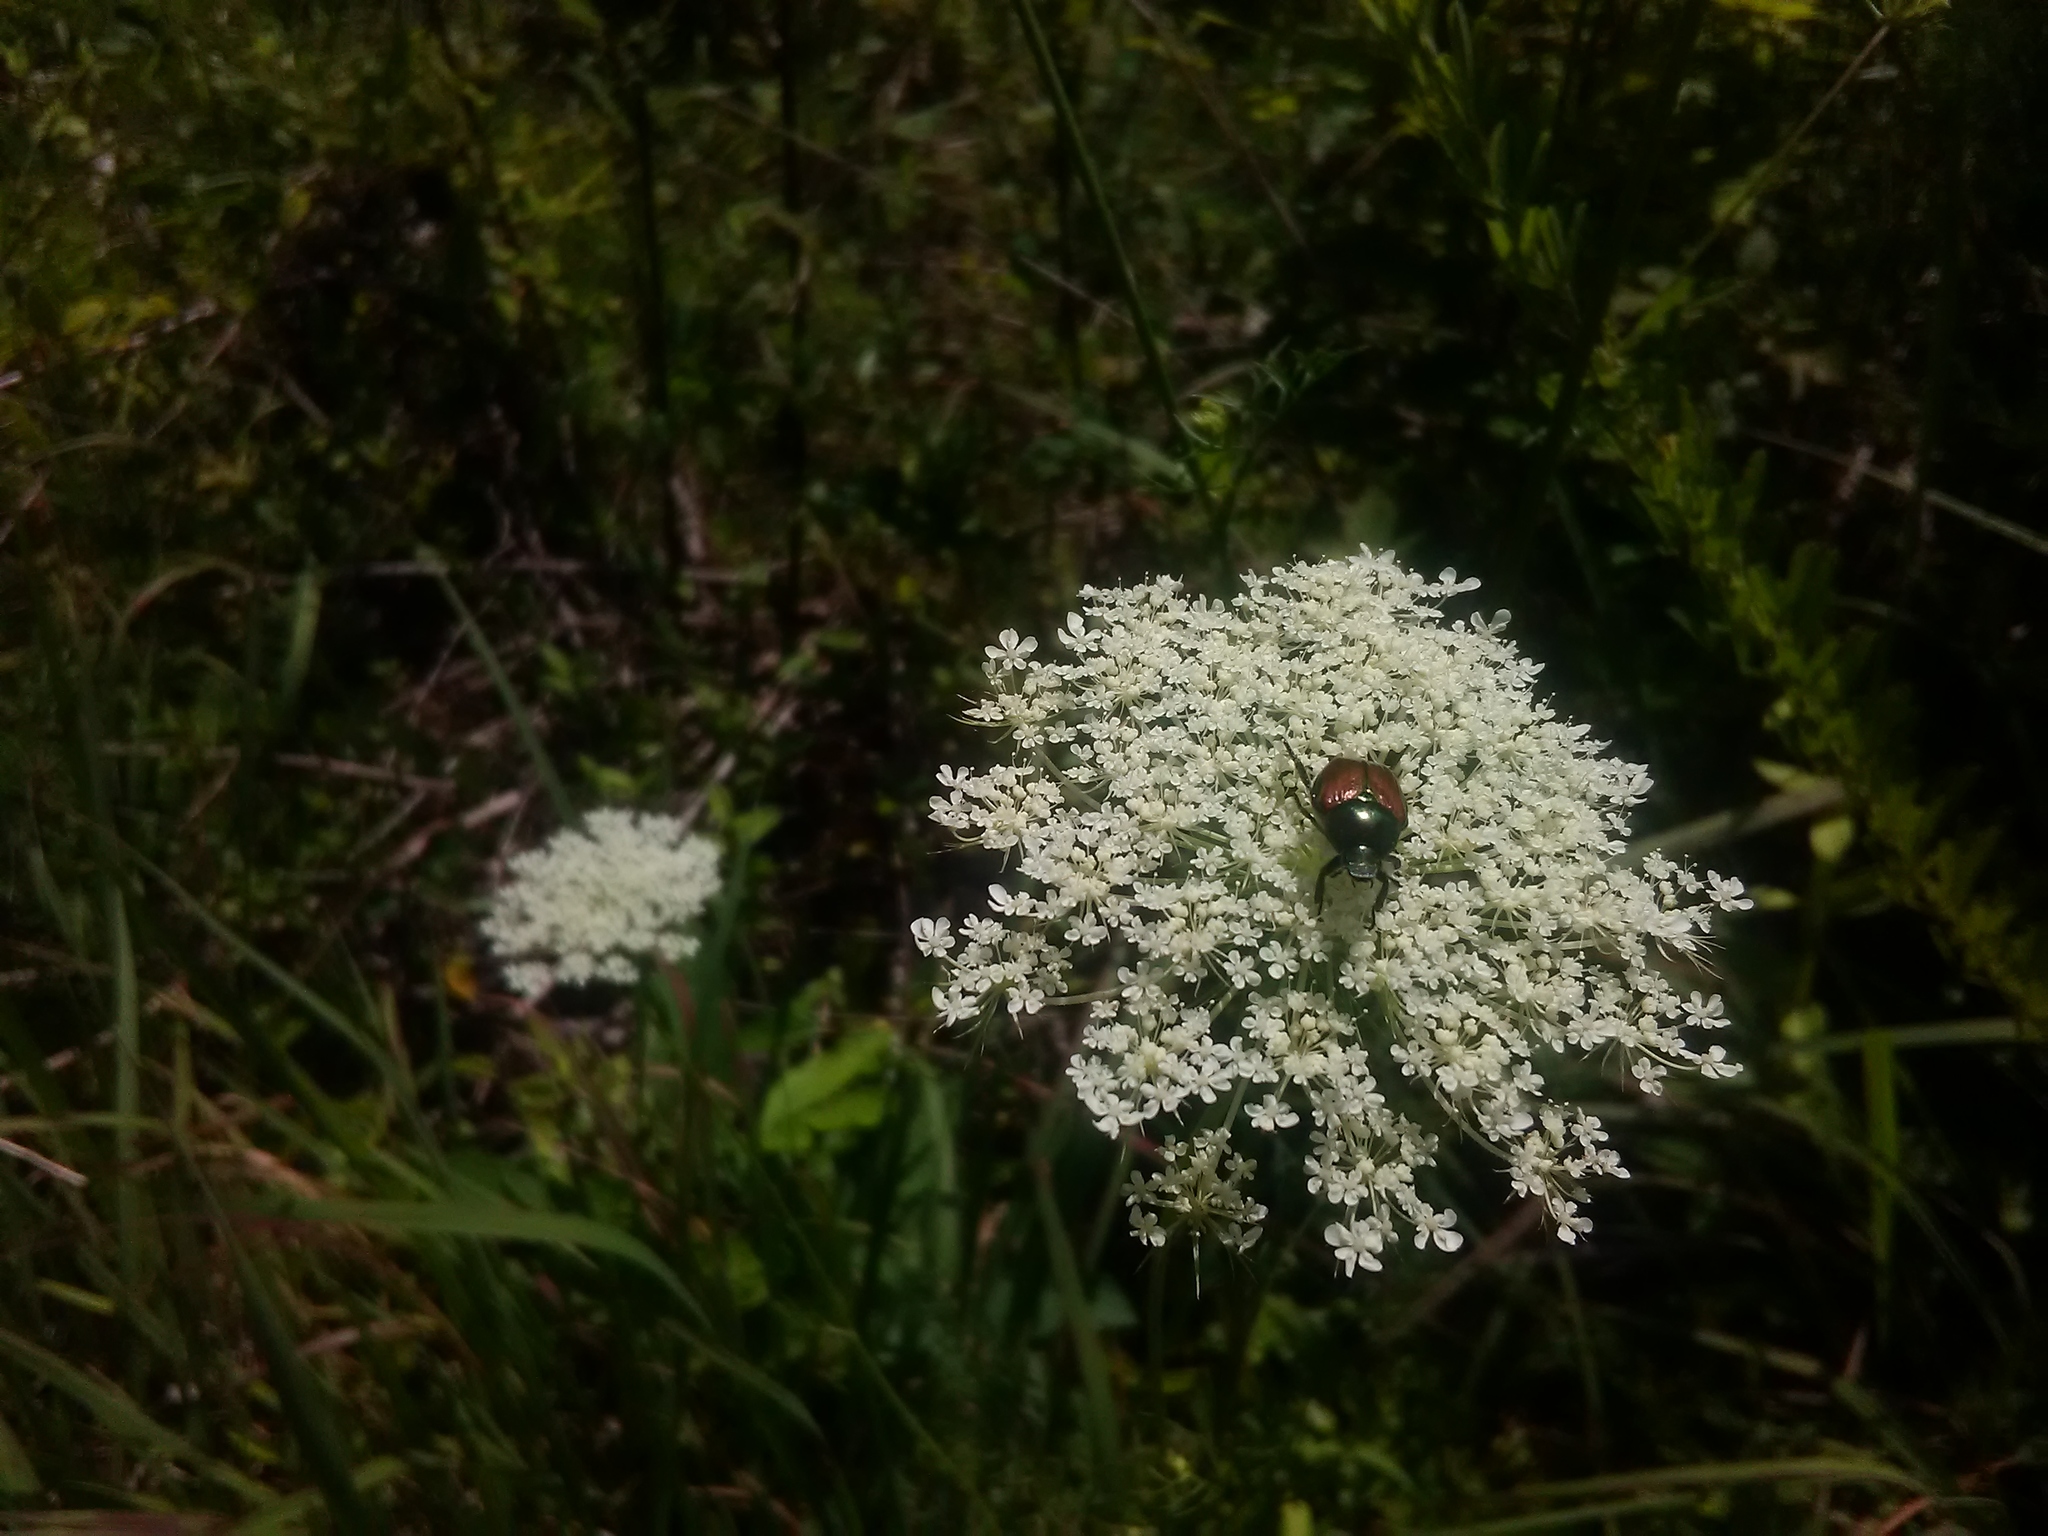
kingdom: Plantae
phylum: Tracheophyta
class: Magnoliopsida
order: Apiales
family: Apiaceae
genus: Daucus
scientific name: Daucus carota
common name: Wild carrot
